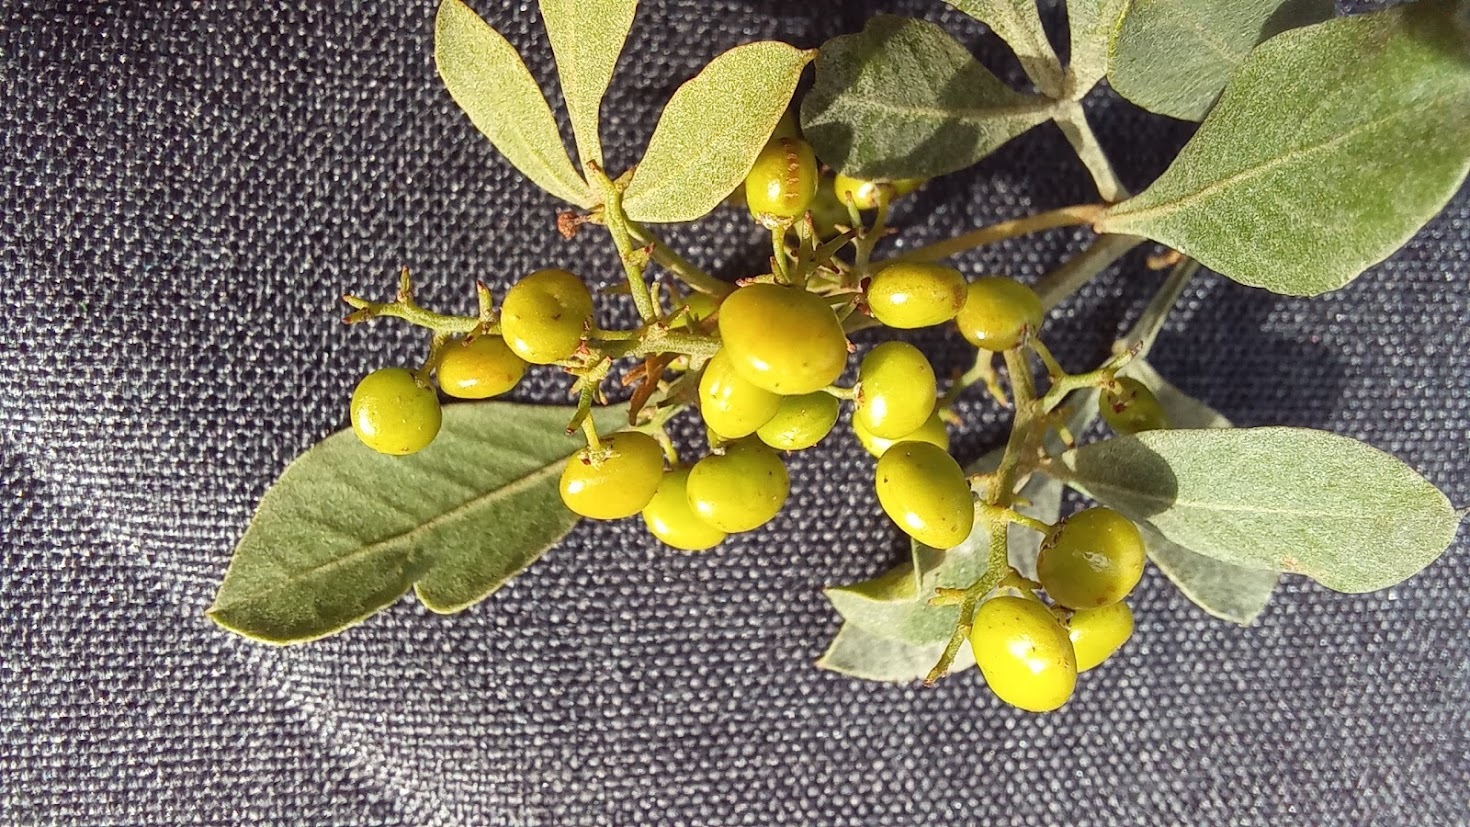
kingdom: Plantae
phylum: Tracheophyta
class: Magnoliopsida
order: Sapindales
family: Anacardiaceae
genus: Searsia
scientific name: Searsia pallens
